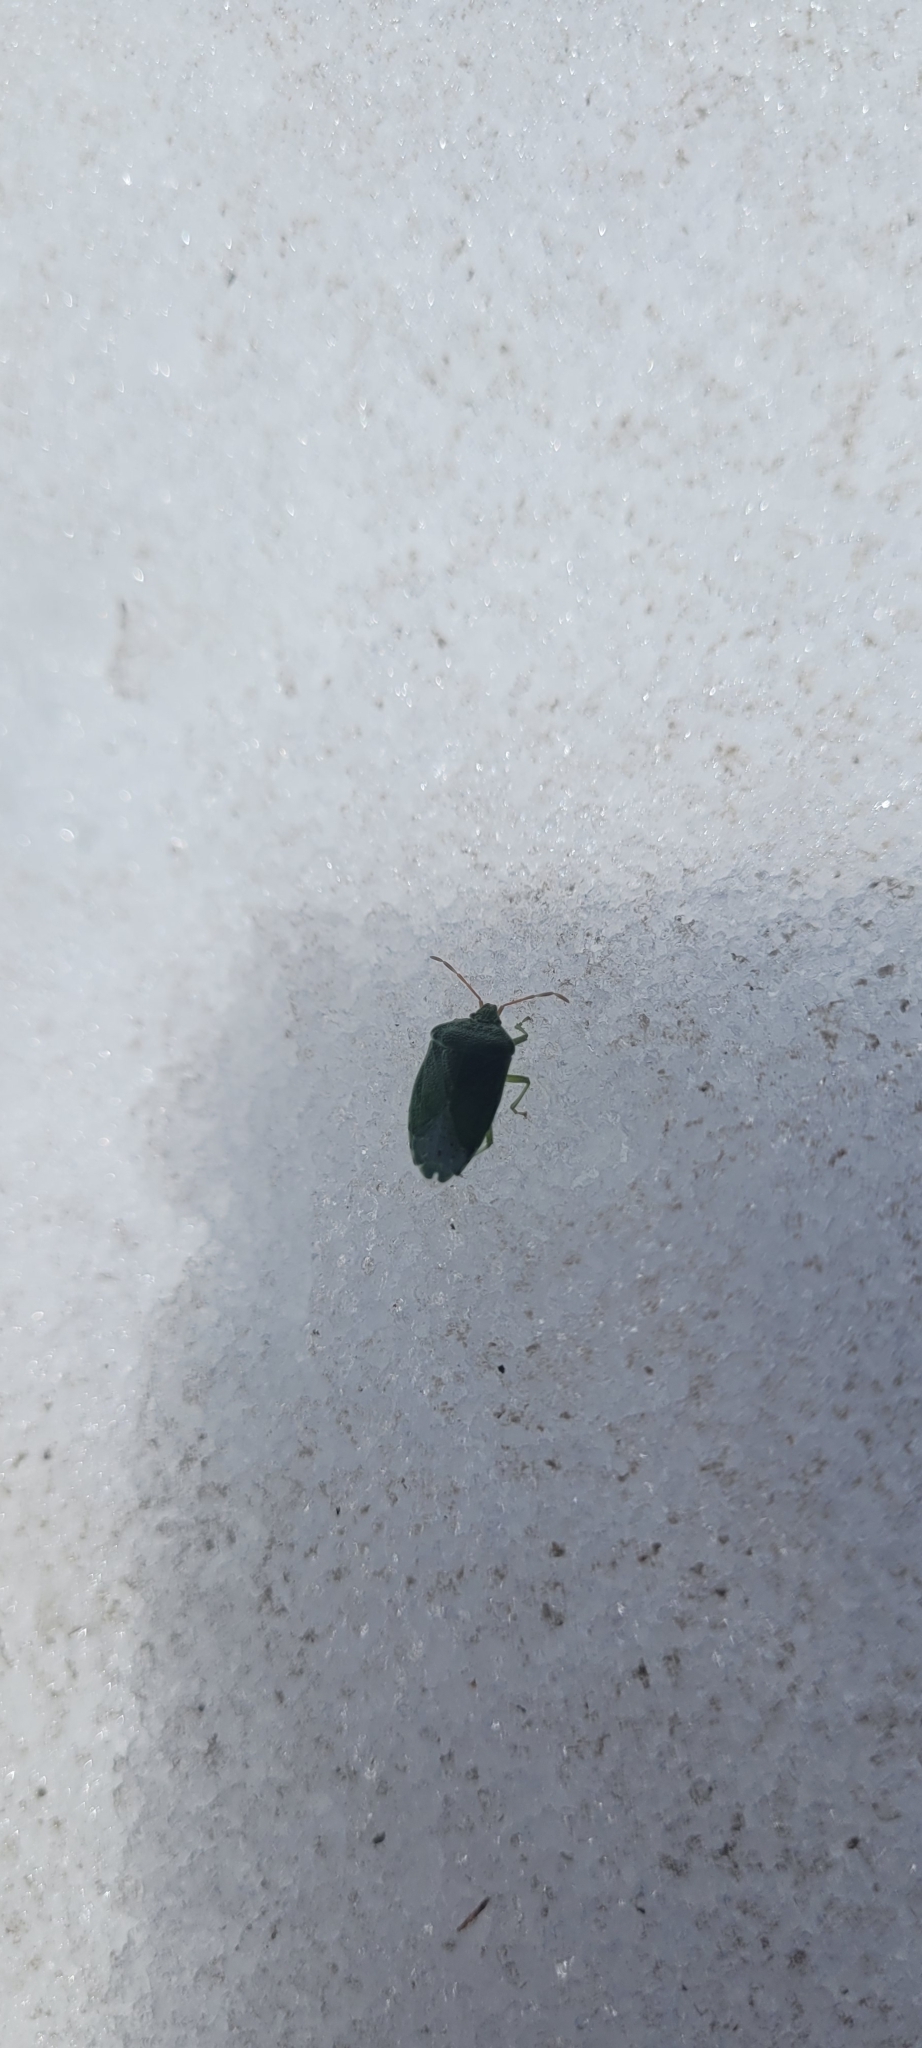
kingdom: Animalia
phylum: Arthropoda
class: Insecta
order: Hemiptera
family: Acanthosomatidae
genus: Sinopla
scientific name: Sinopla perpunctatus
